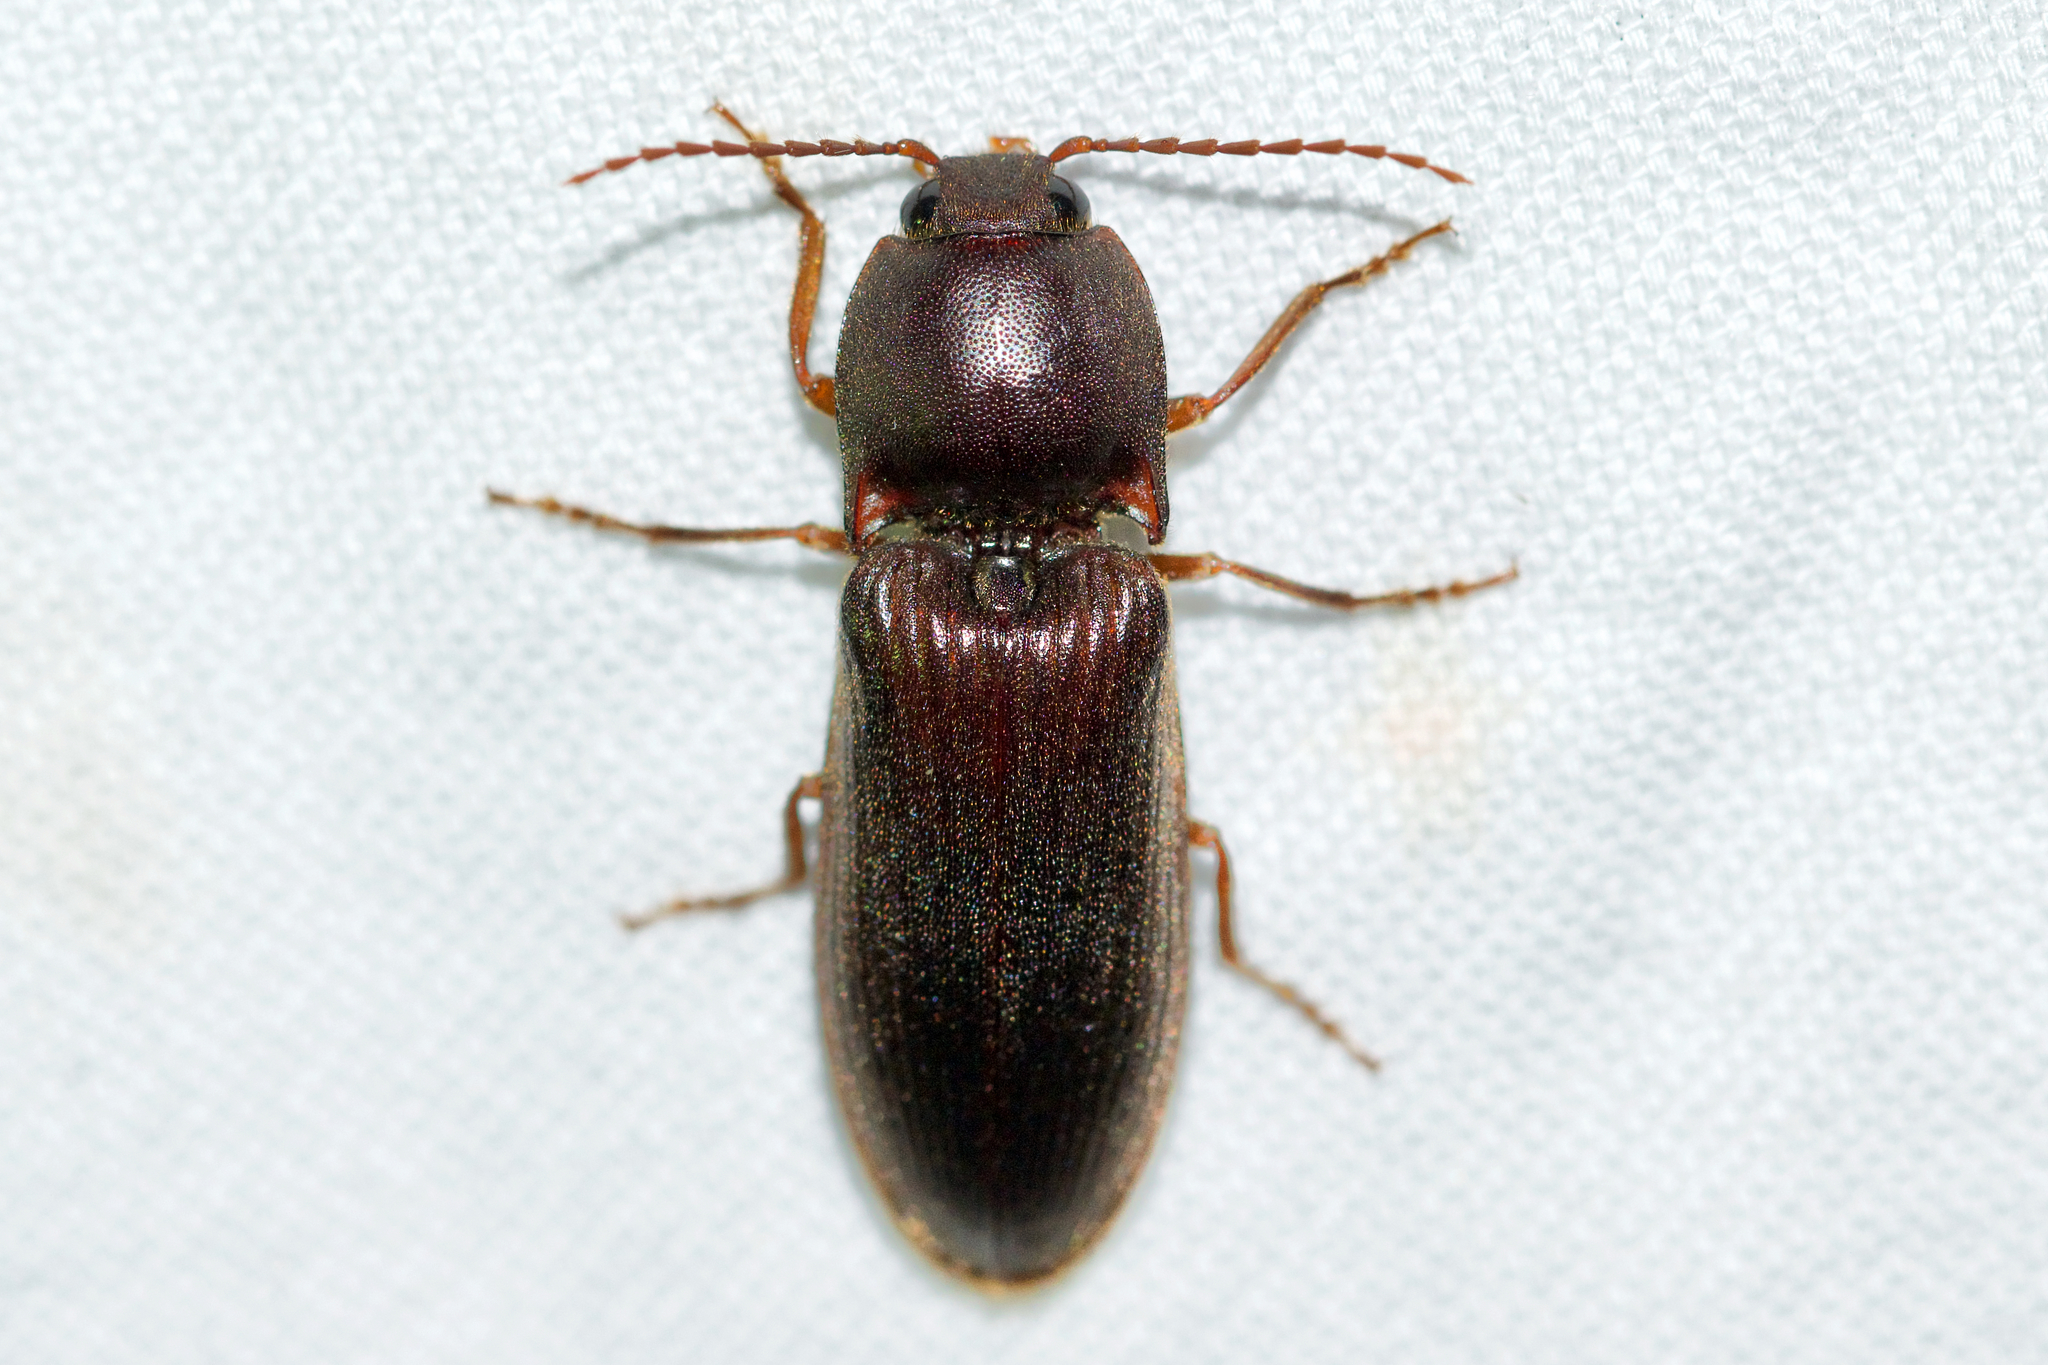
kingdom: Animalia
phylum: Arthropoda
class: Insecta
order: Coleoptera
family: Elateridae
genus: Hemicrepidius
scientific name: Hemicrepidius
